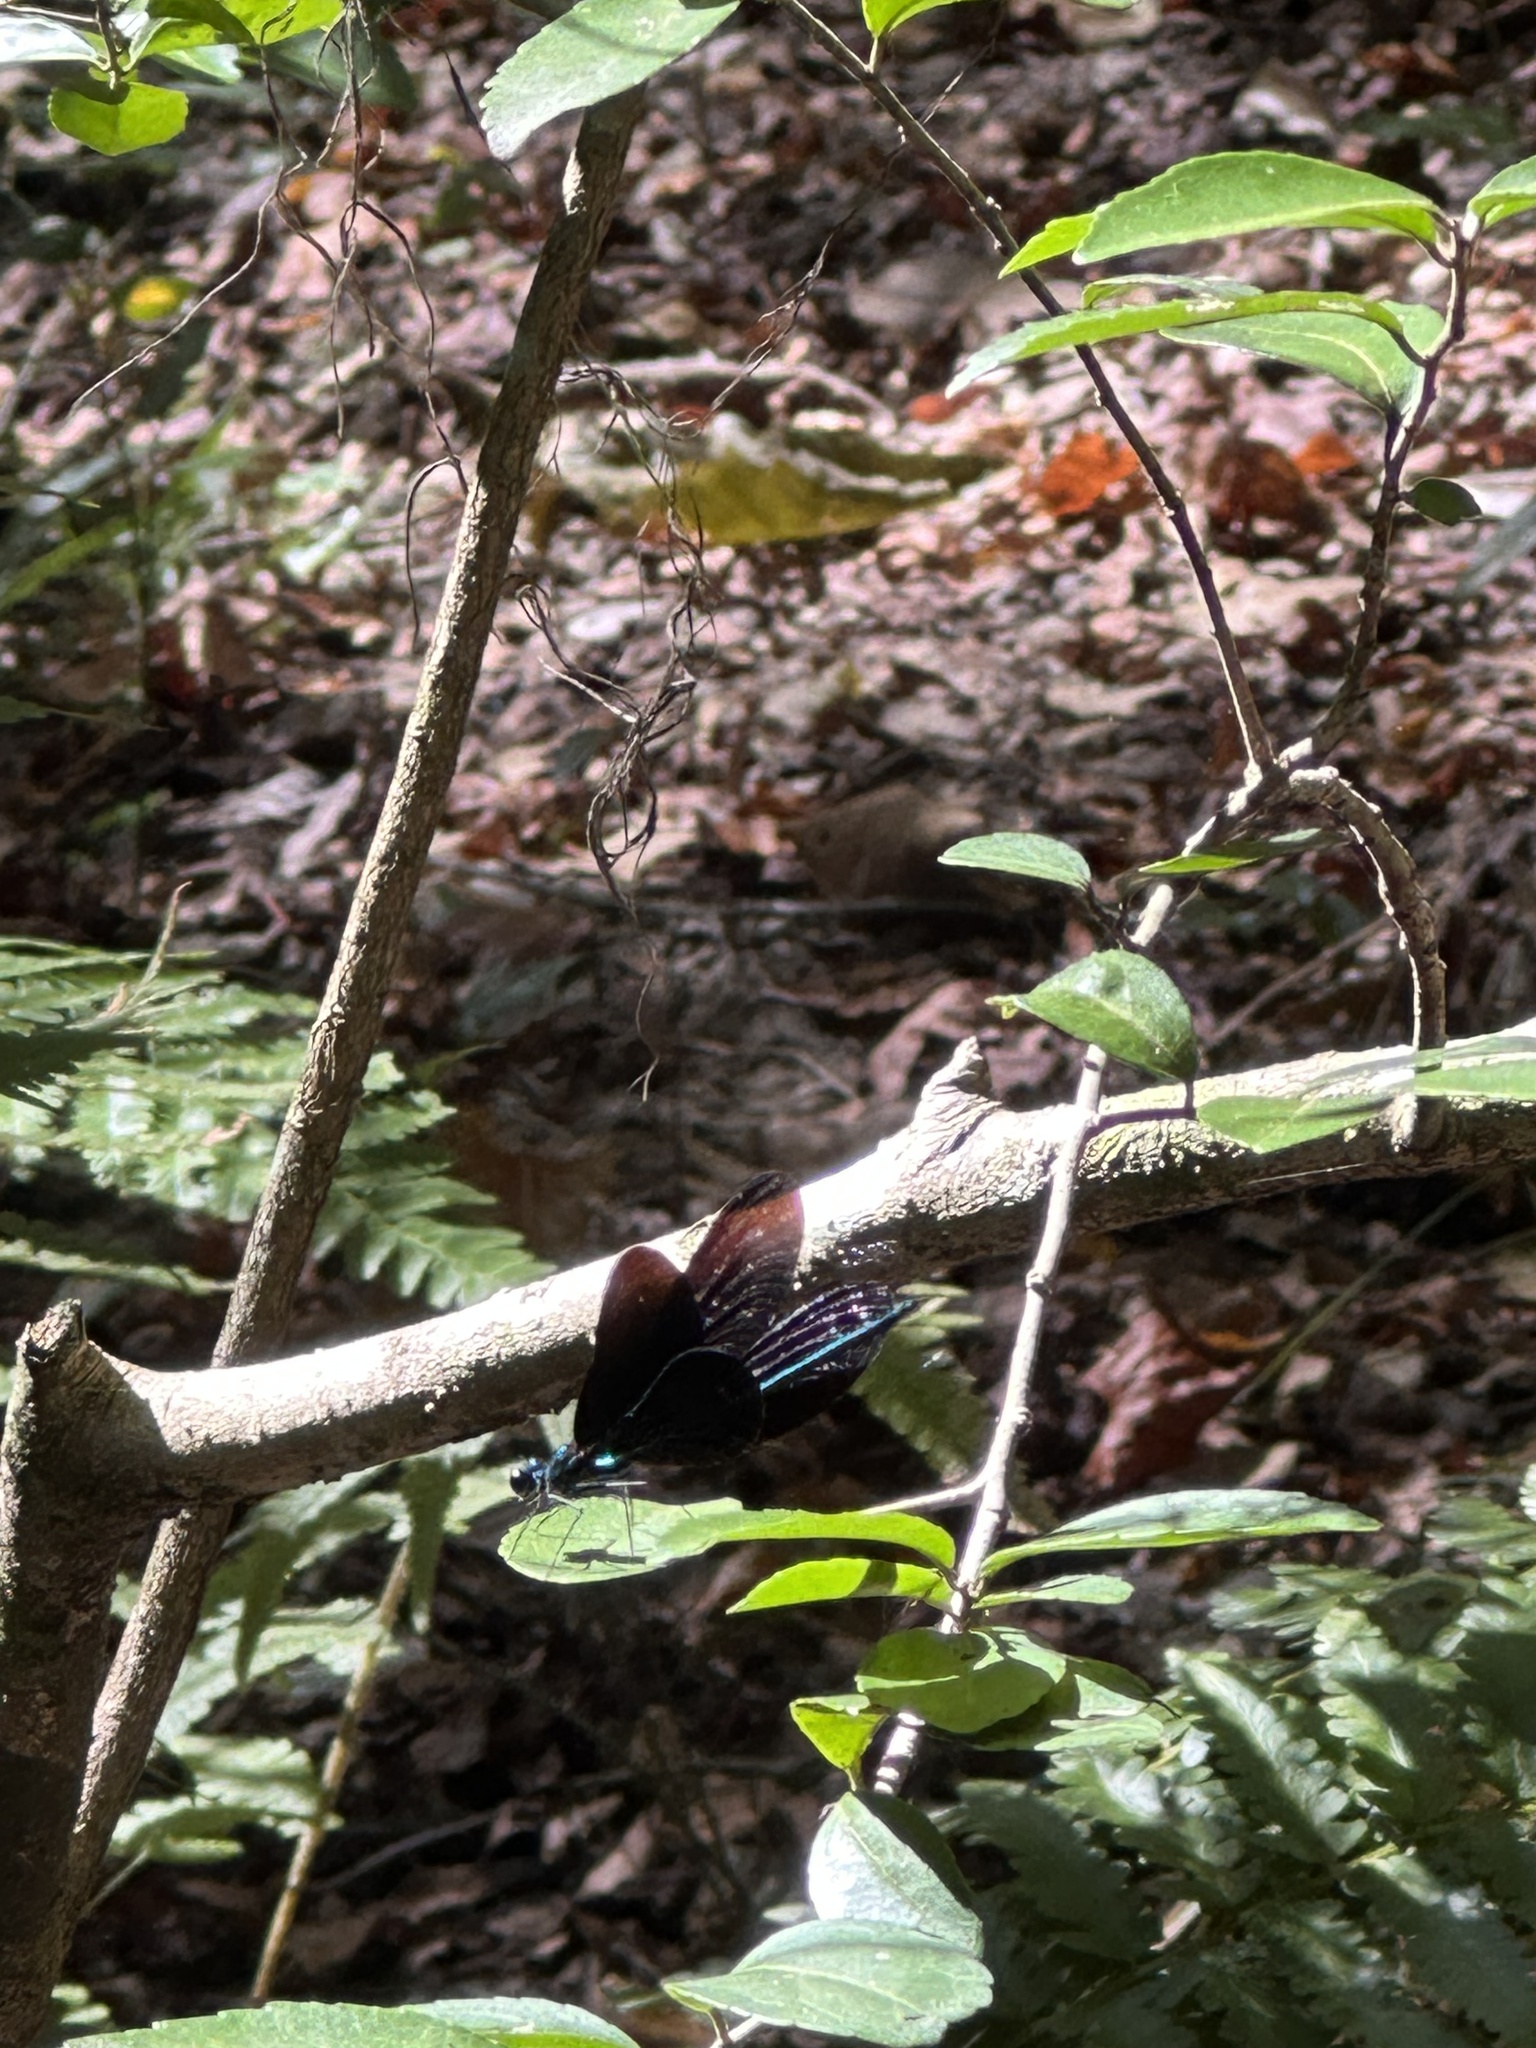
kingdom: Animalia
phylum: Arthropoda
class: Insecta
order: Odonata
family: Calopterygidae
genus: Calopteryx
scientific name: Calopteryx maculata
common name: Ebony jewelwing
